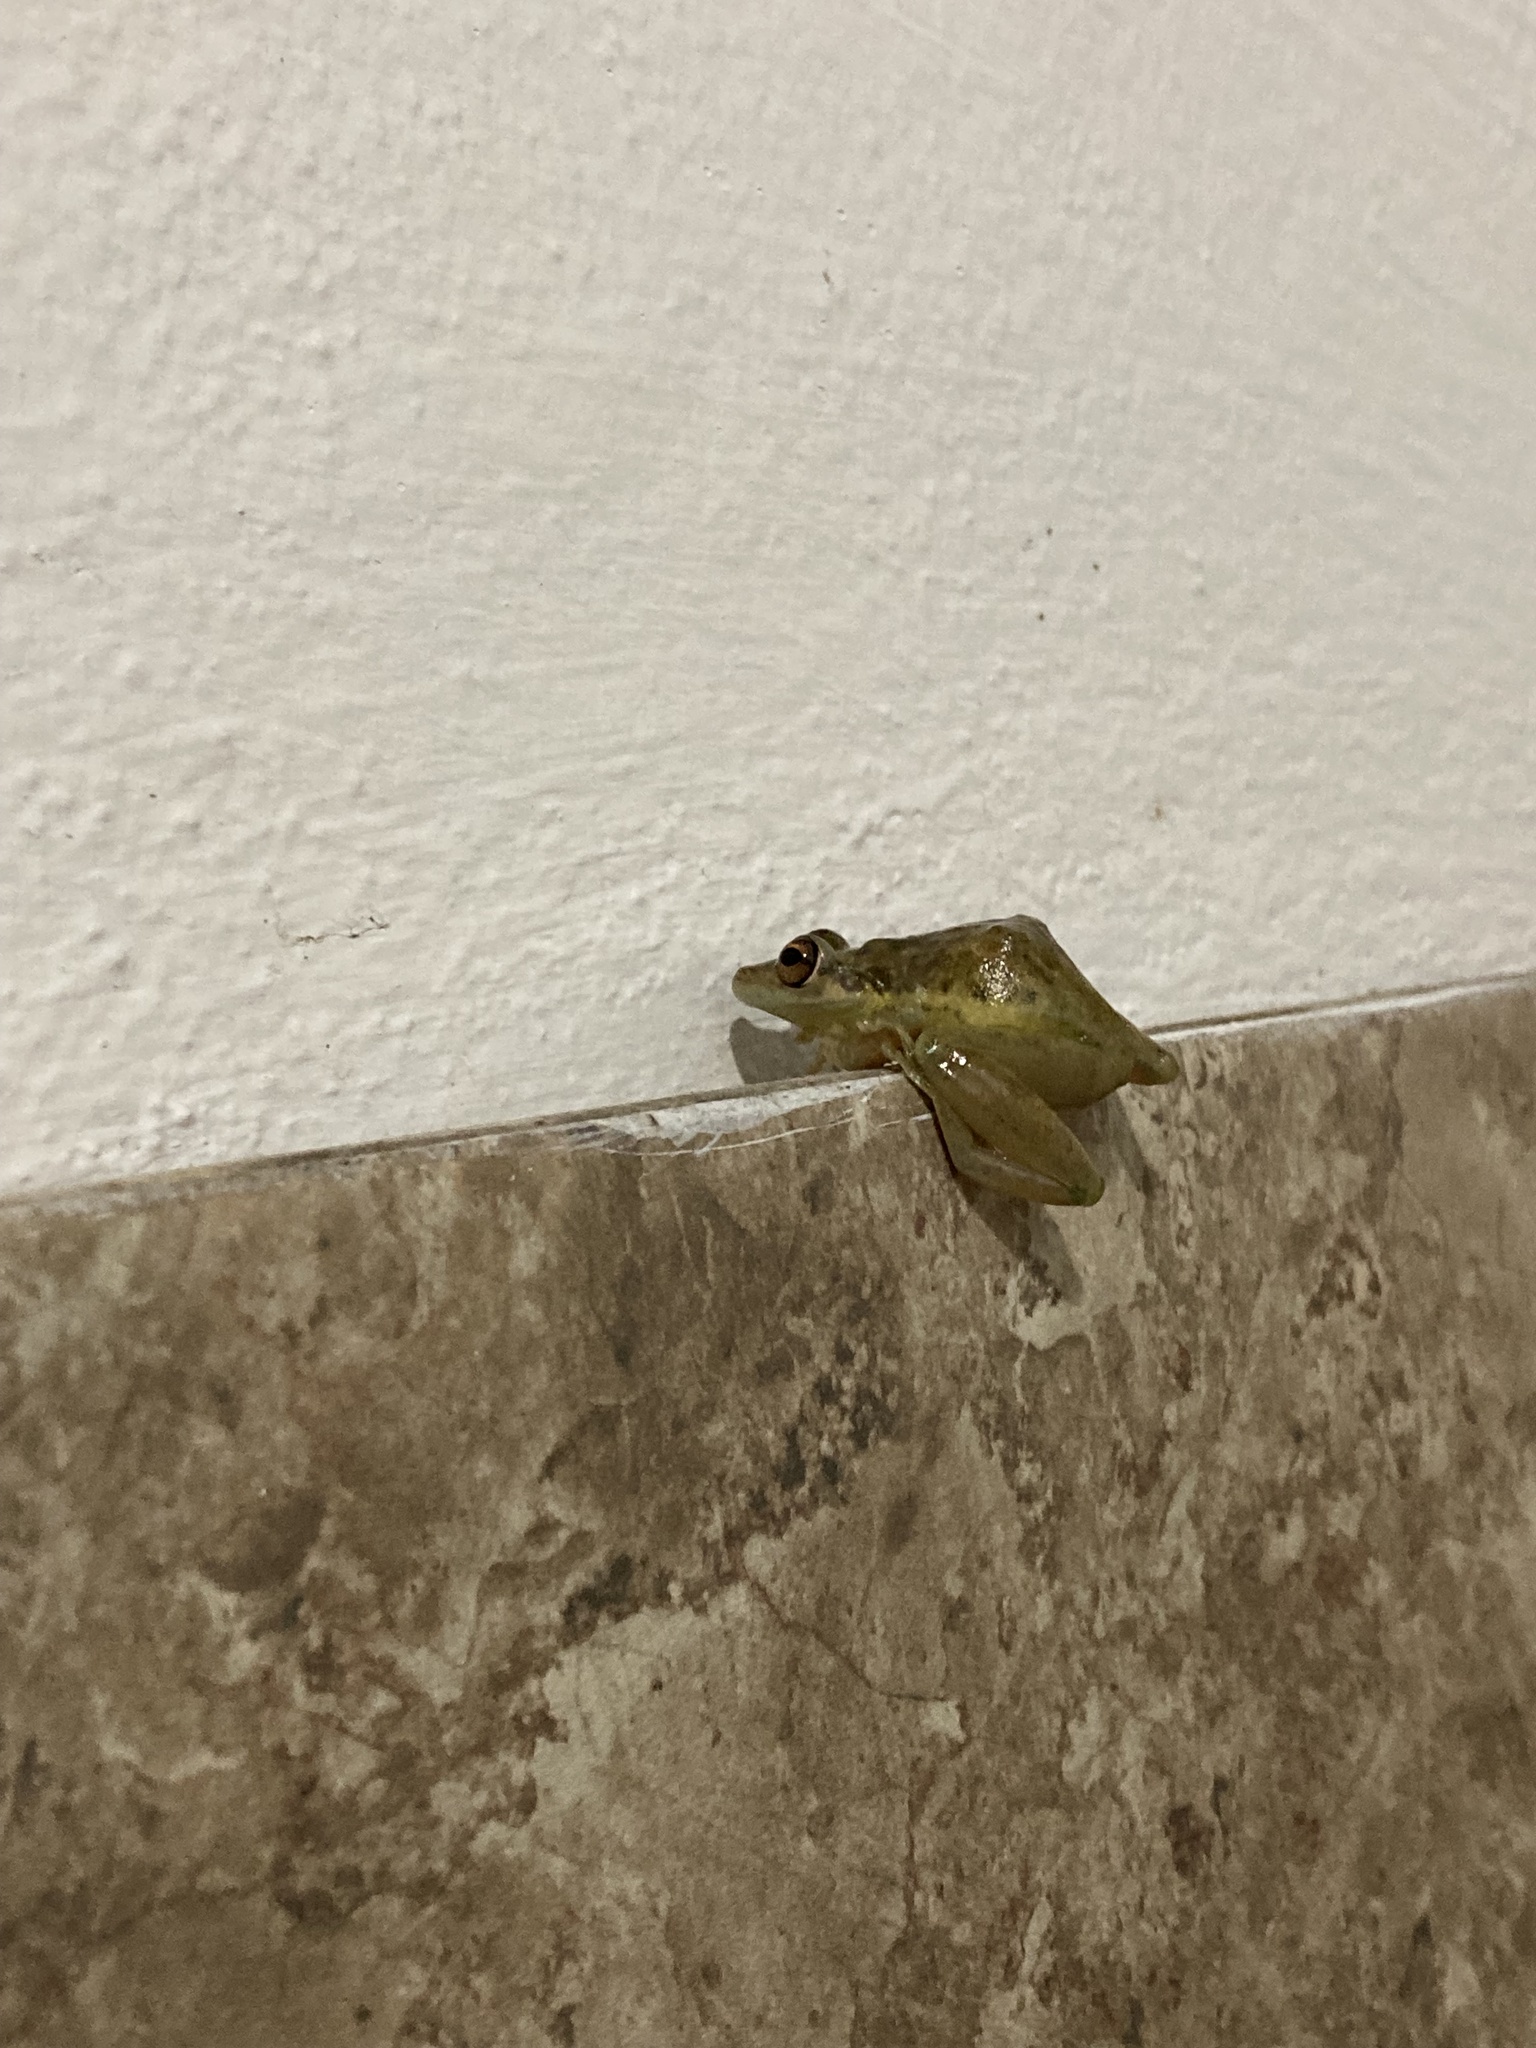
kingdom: Animalia
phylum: Chordata
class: Amphibia
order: Anura
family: Hylidae
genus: Scinax
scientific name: Scinax elaeochroa
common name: Sipurio snouted treefrog
